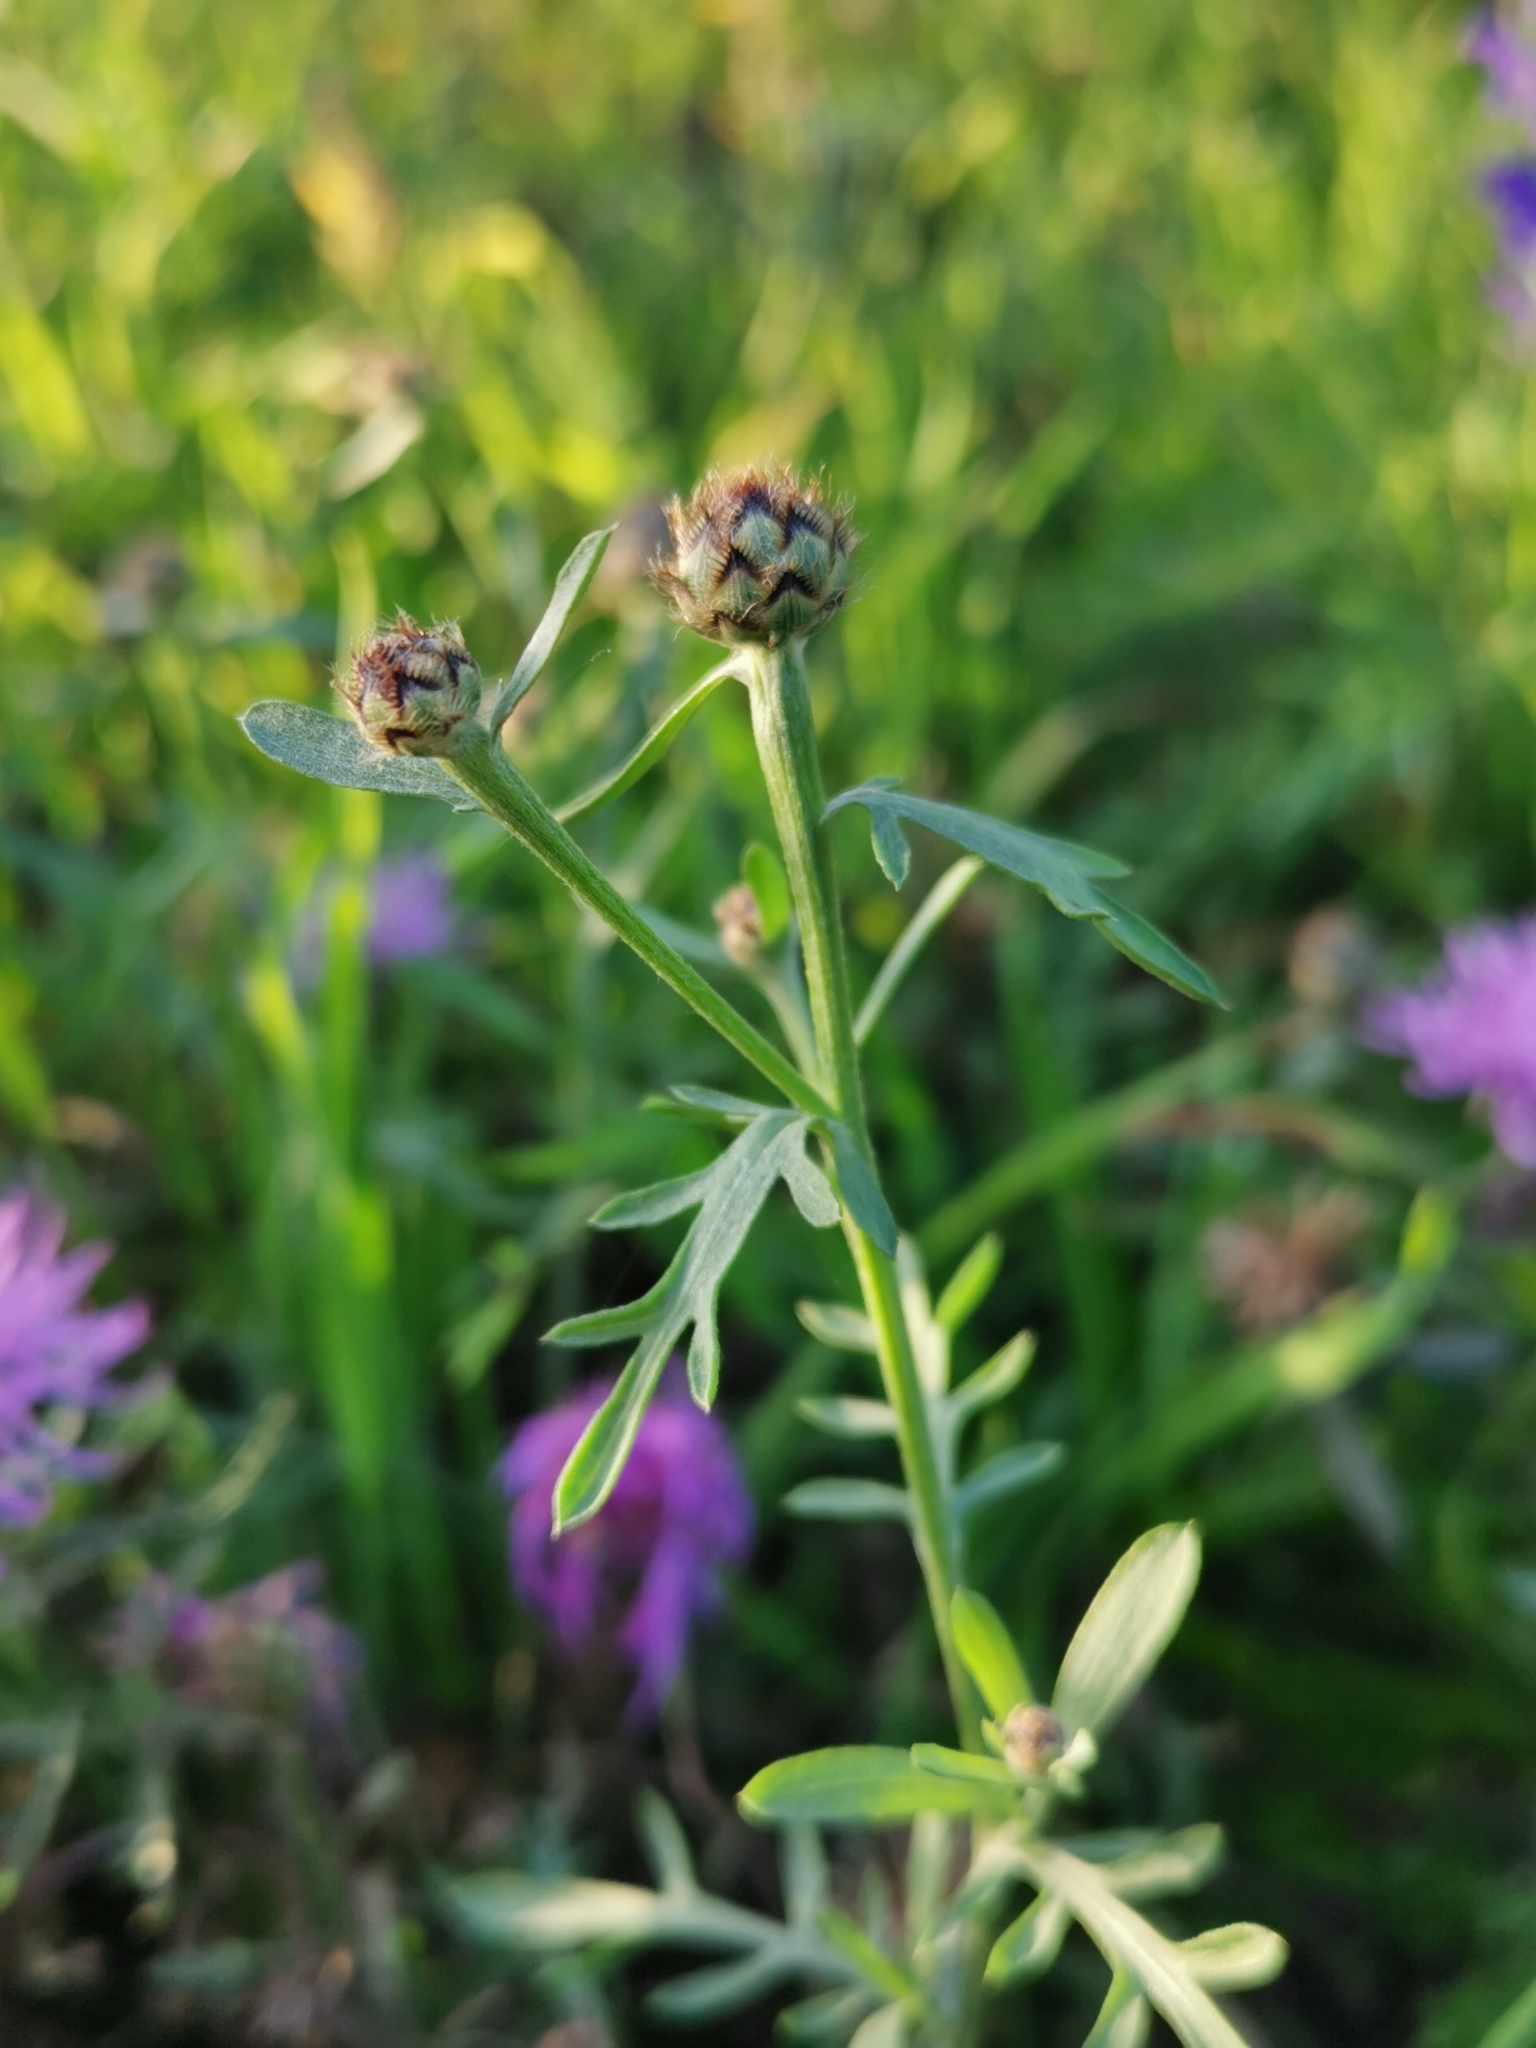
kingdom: Plantae
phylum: Tracheophyta
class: Magnoliopsida
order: Asterales
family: Asteraceae
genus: Centaurea
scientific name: Centaurea stoebe
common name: Spotted knapweed
